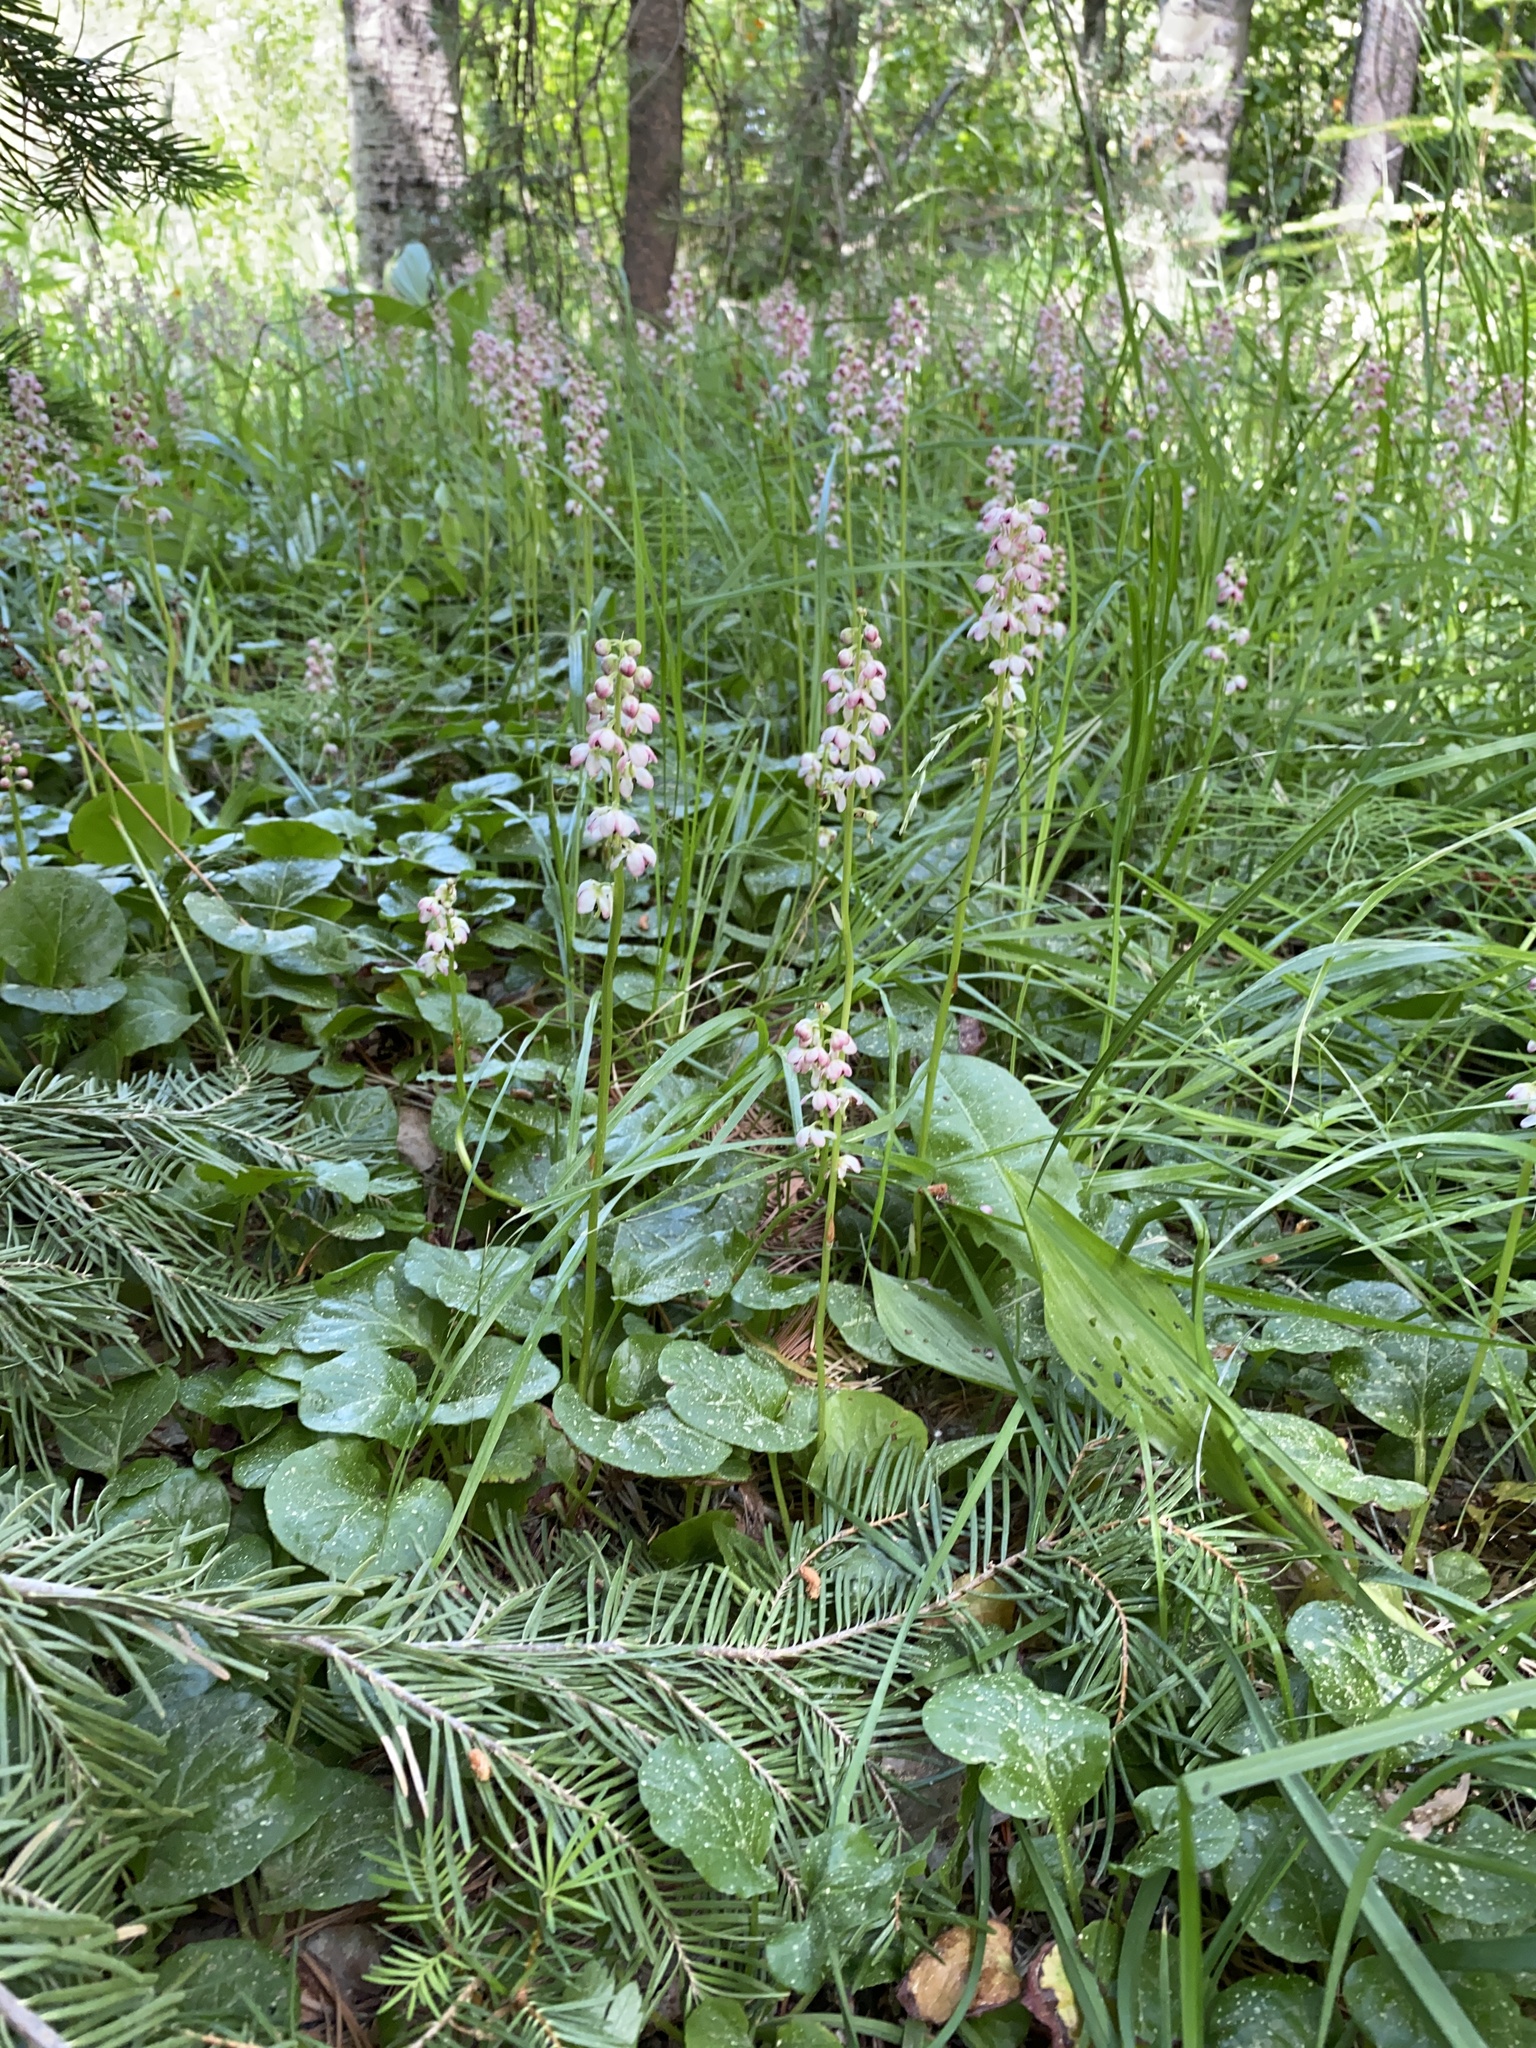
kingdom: Plantae
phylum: Tracheophyta
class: Magnoliopsida
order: Ericales
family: Ericaceae
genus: Pyrola
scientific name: Pyrola asarifolia
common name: Bog wintergreen
